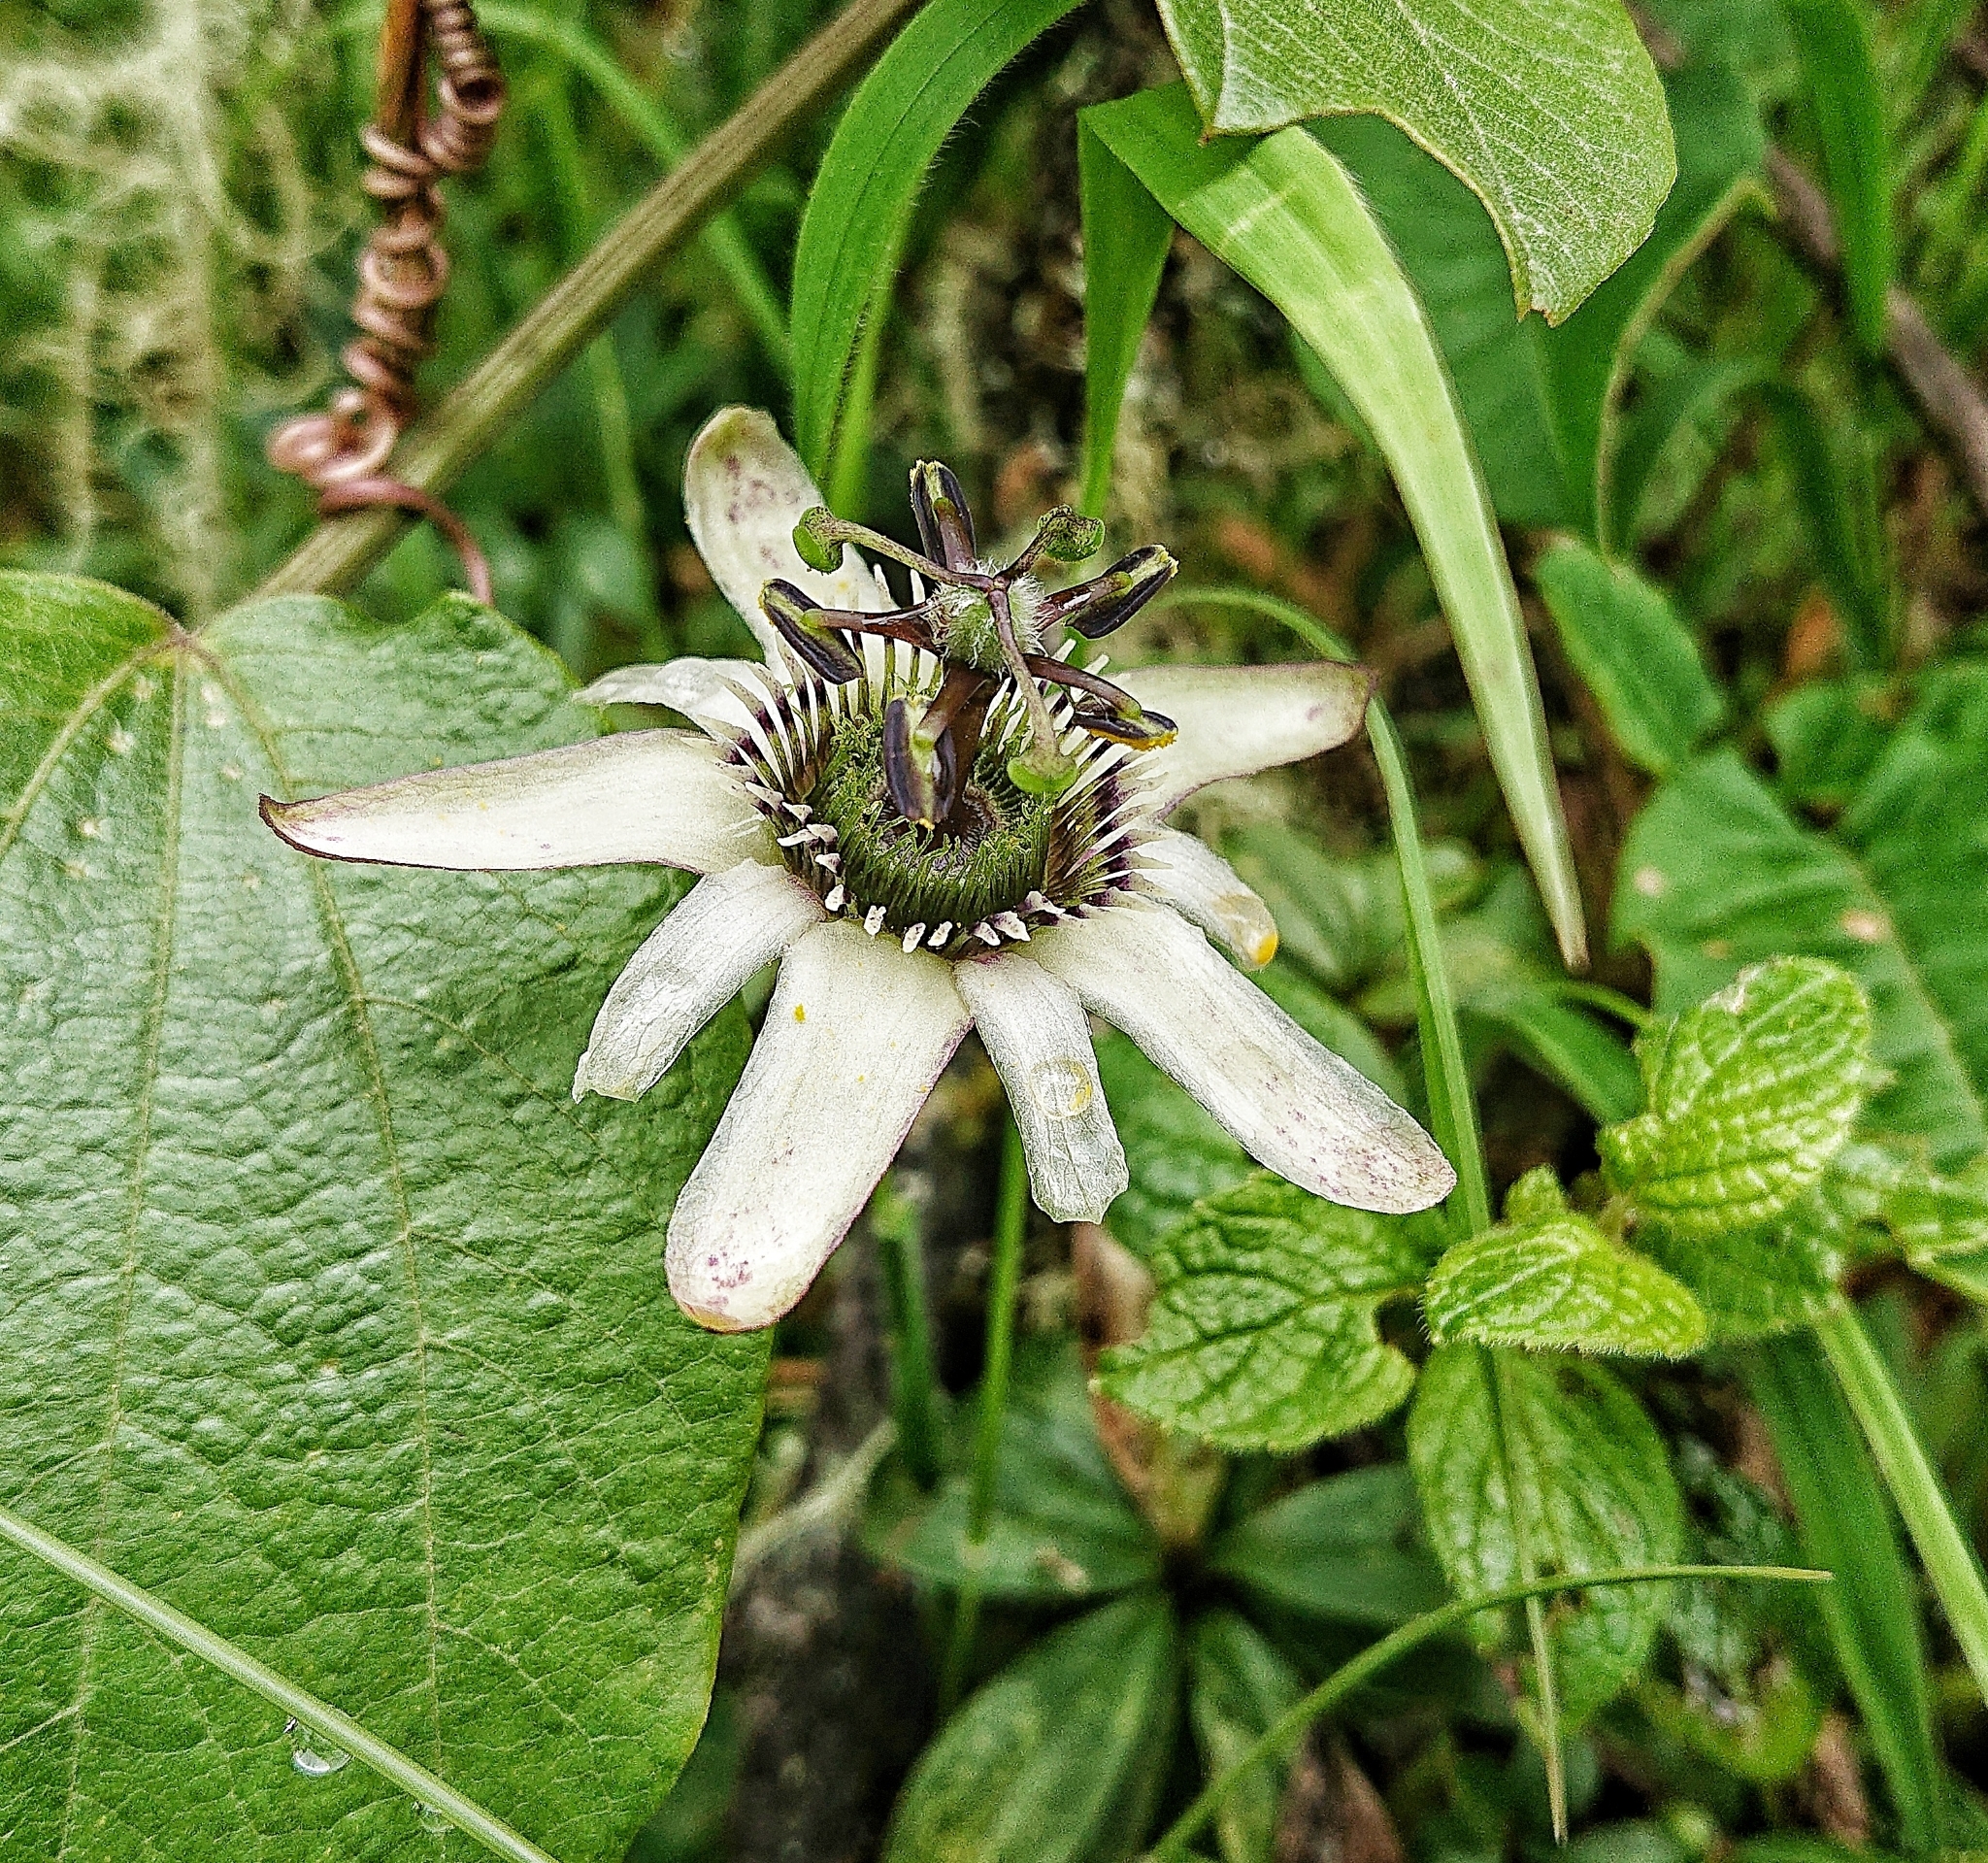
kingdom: Plantae
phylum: Tracheophyta
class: Magnoliopsida
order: Malpighiales
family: Passifloraceae
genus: Passiflora
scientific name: Passiflora alnifolia
